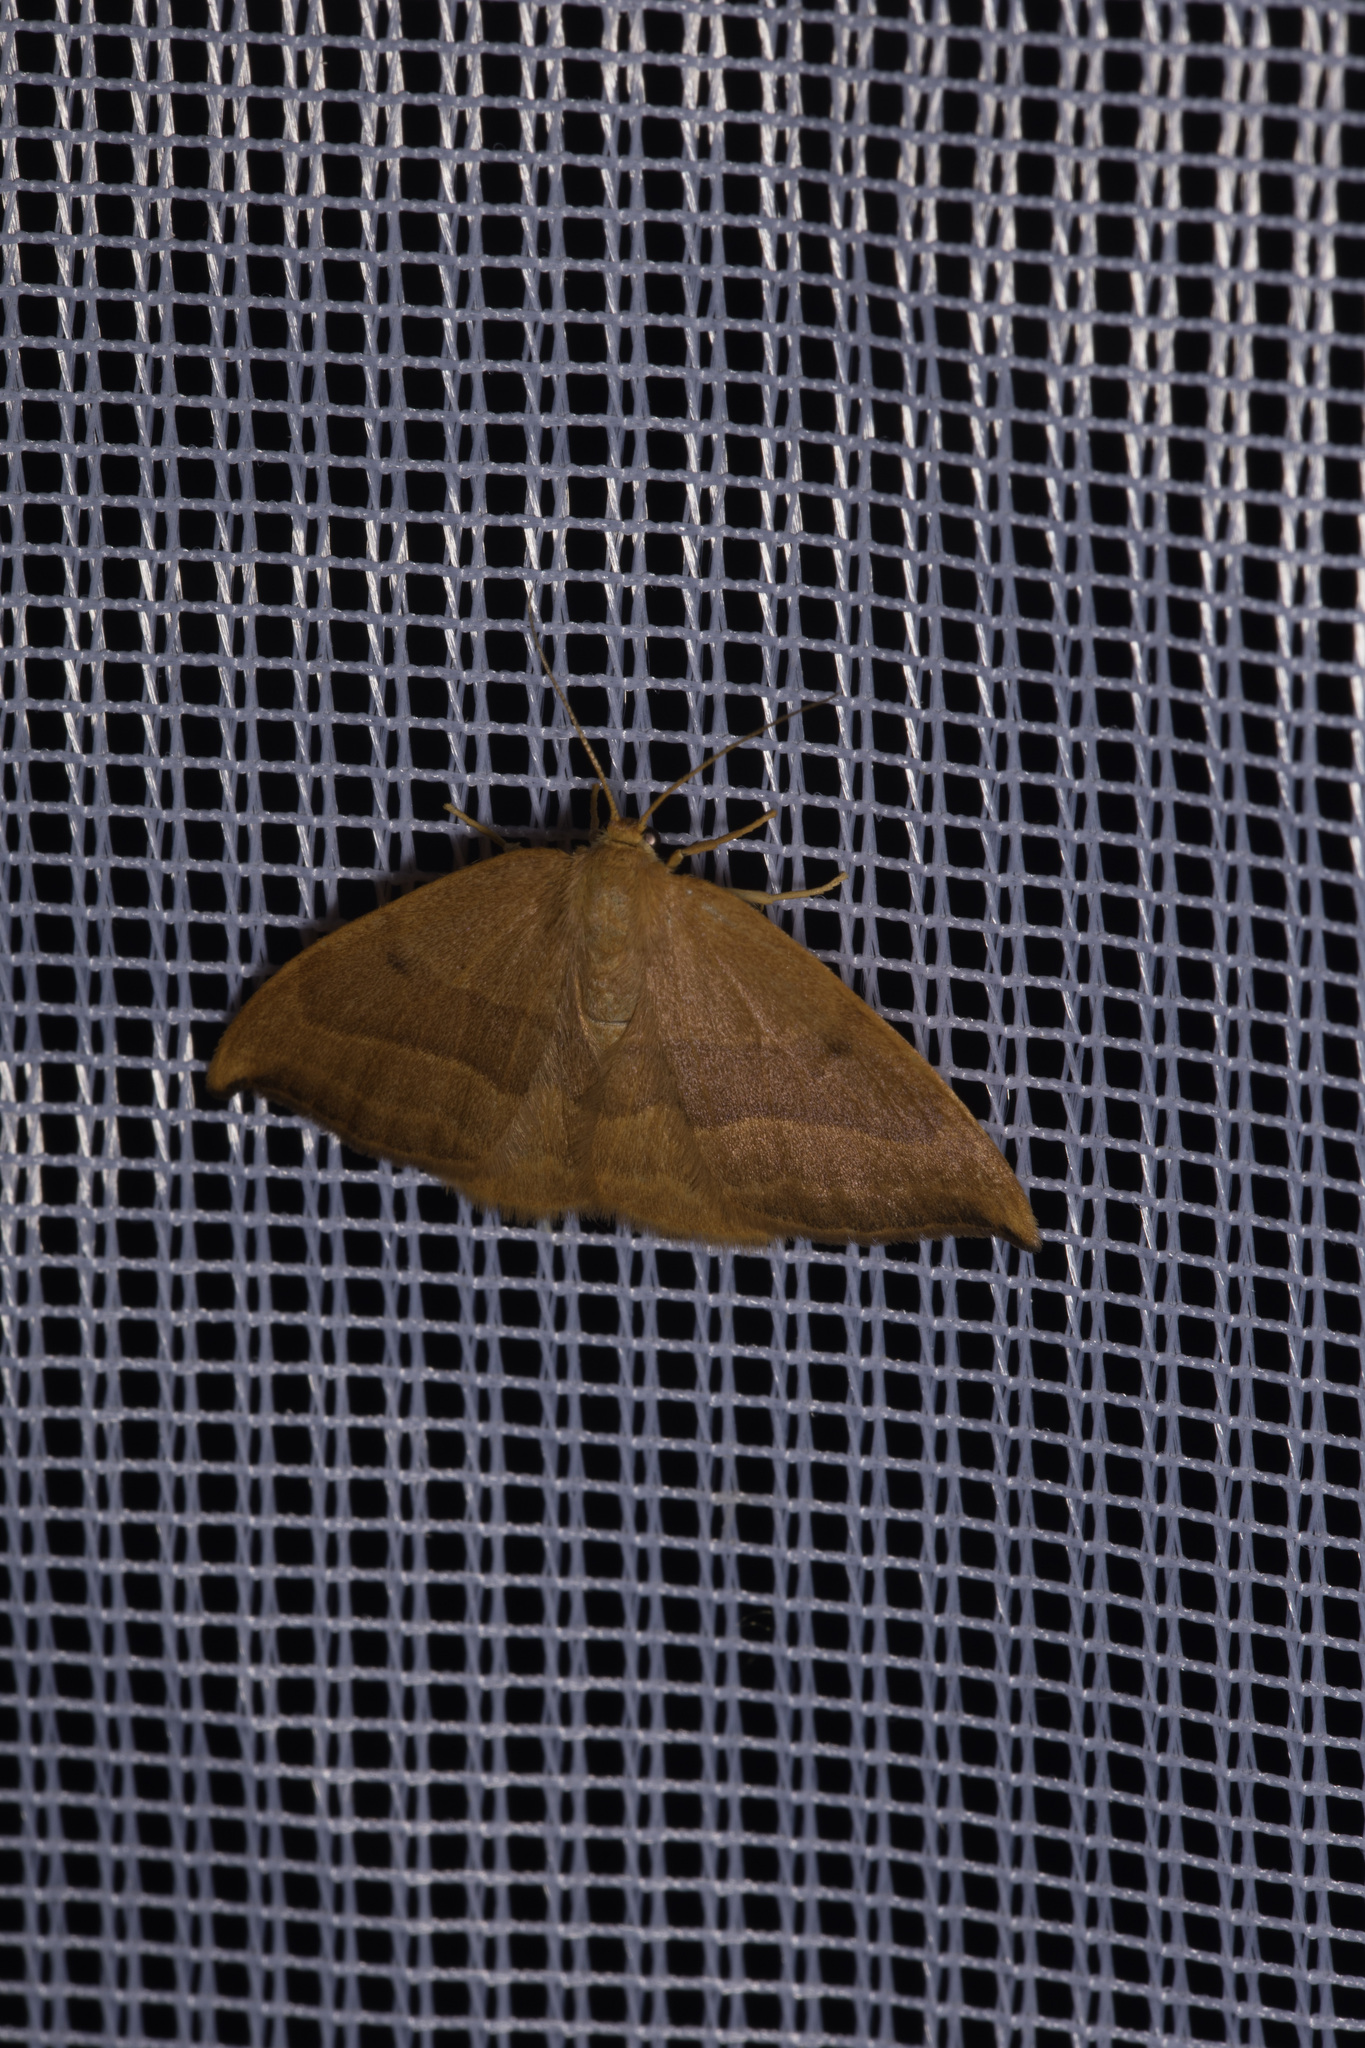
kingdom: Animalia
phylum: Arthropoda
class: Insecta
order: Lepidoptera
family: Drepanidae
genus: Watsonalla
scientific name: Watsonalla cultraria
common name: Barred hook-tip
